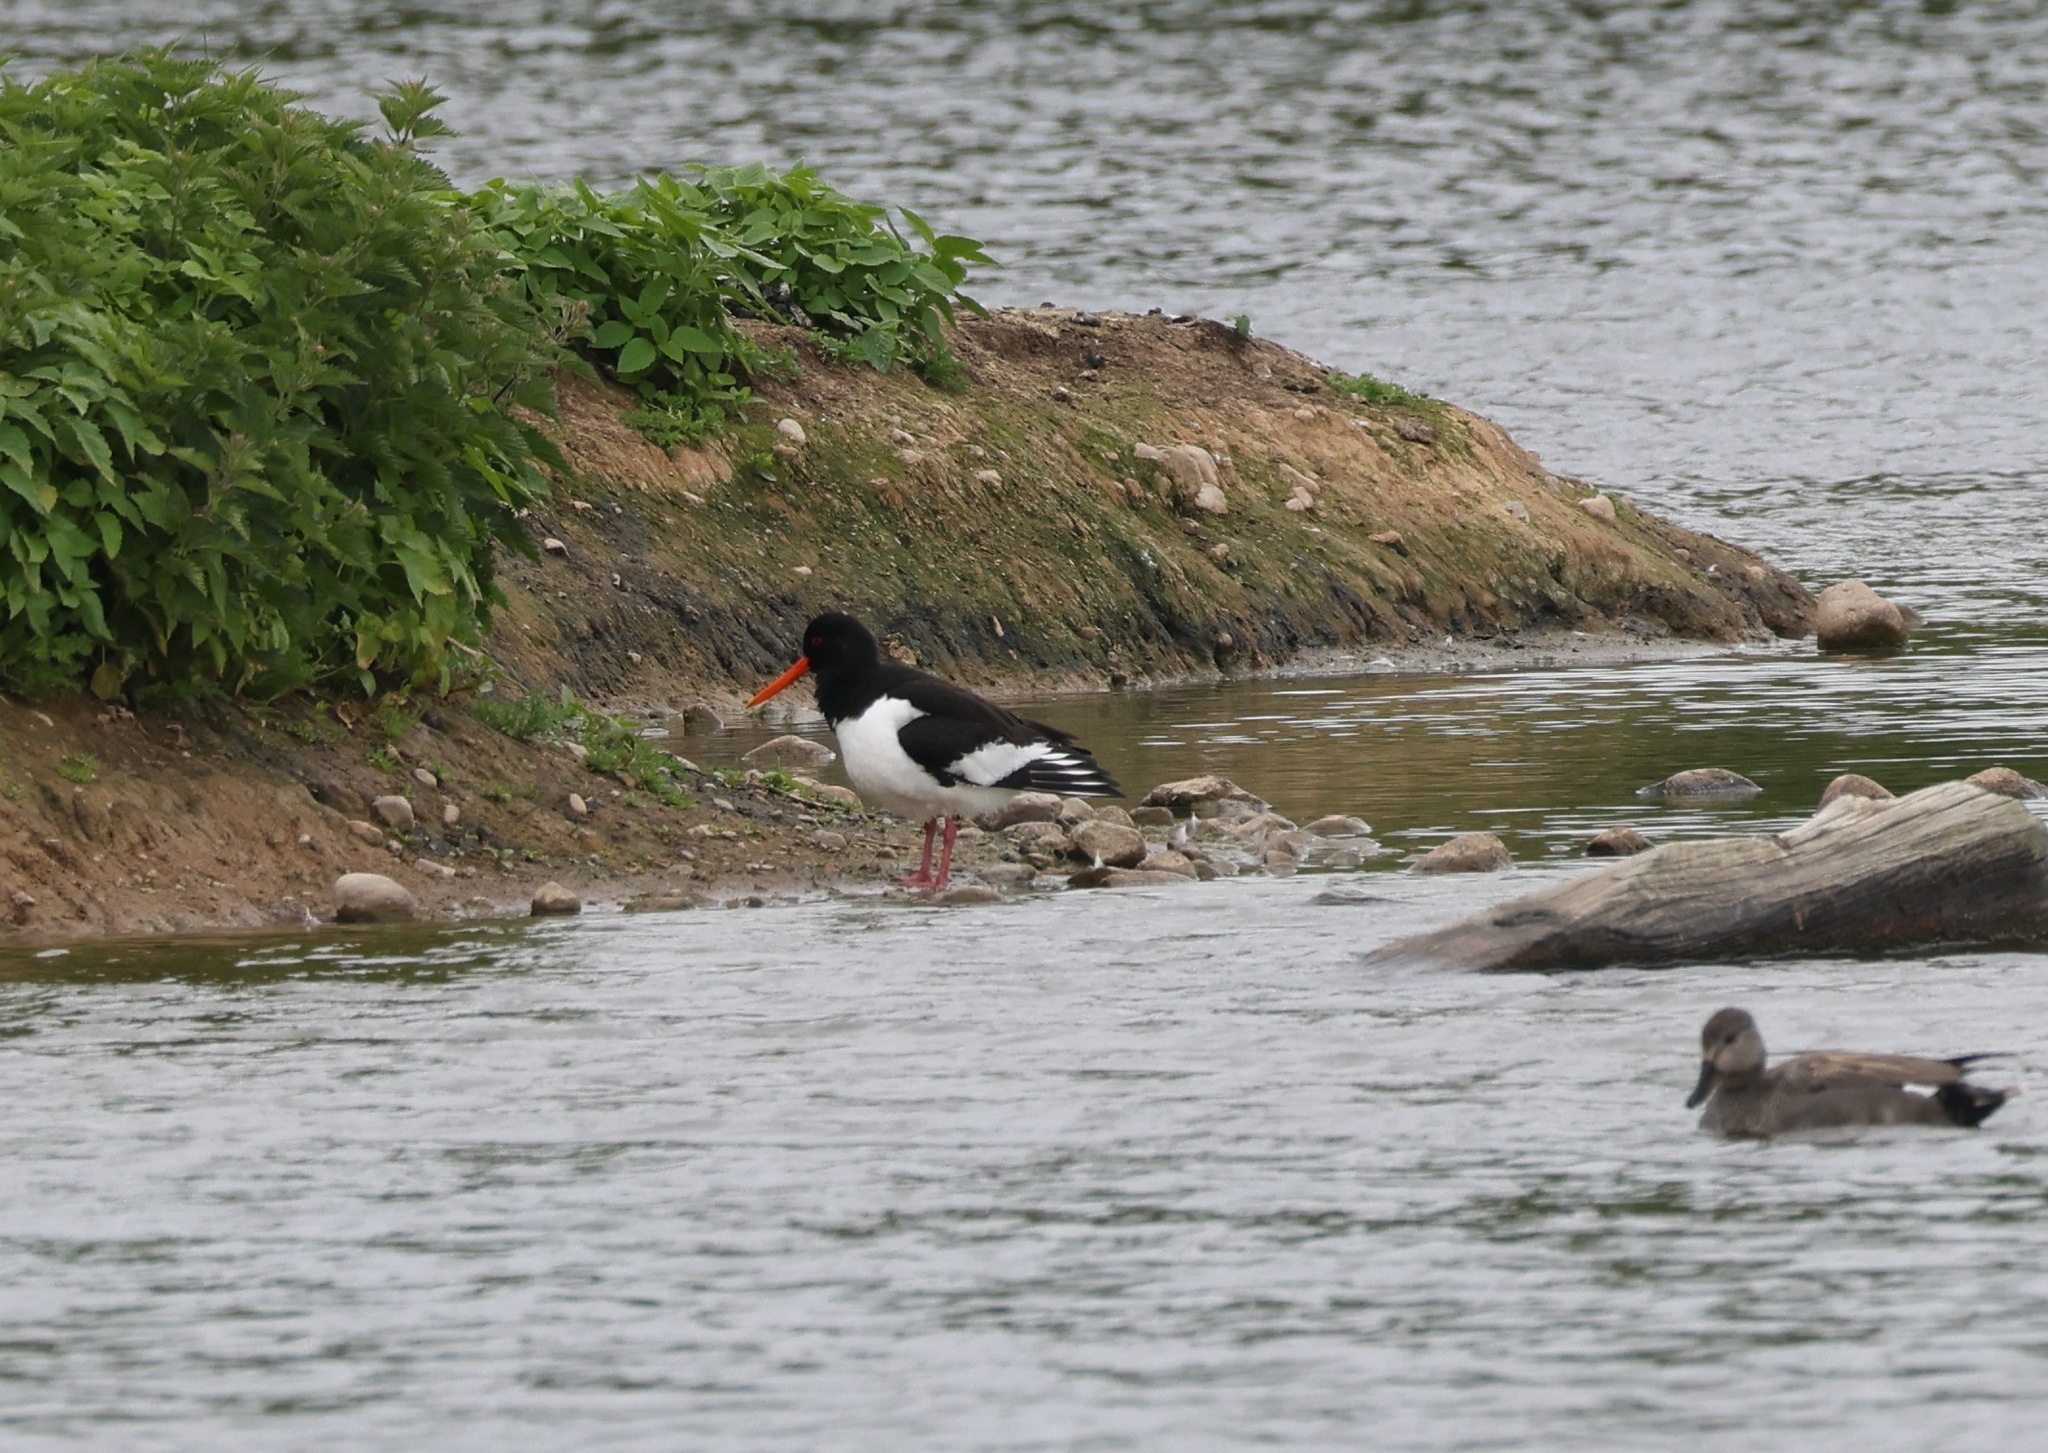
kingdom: Animalia
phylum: Chordata
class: Aves
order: Charadriiformes
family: Haematopodidae
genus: Haematopus
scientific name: Haematopus ostralegus
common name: Eurasian oystercatcher
